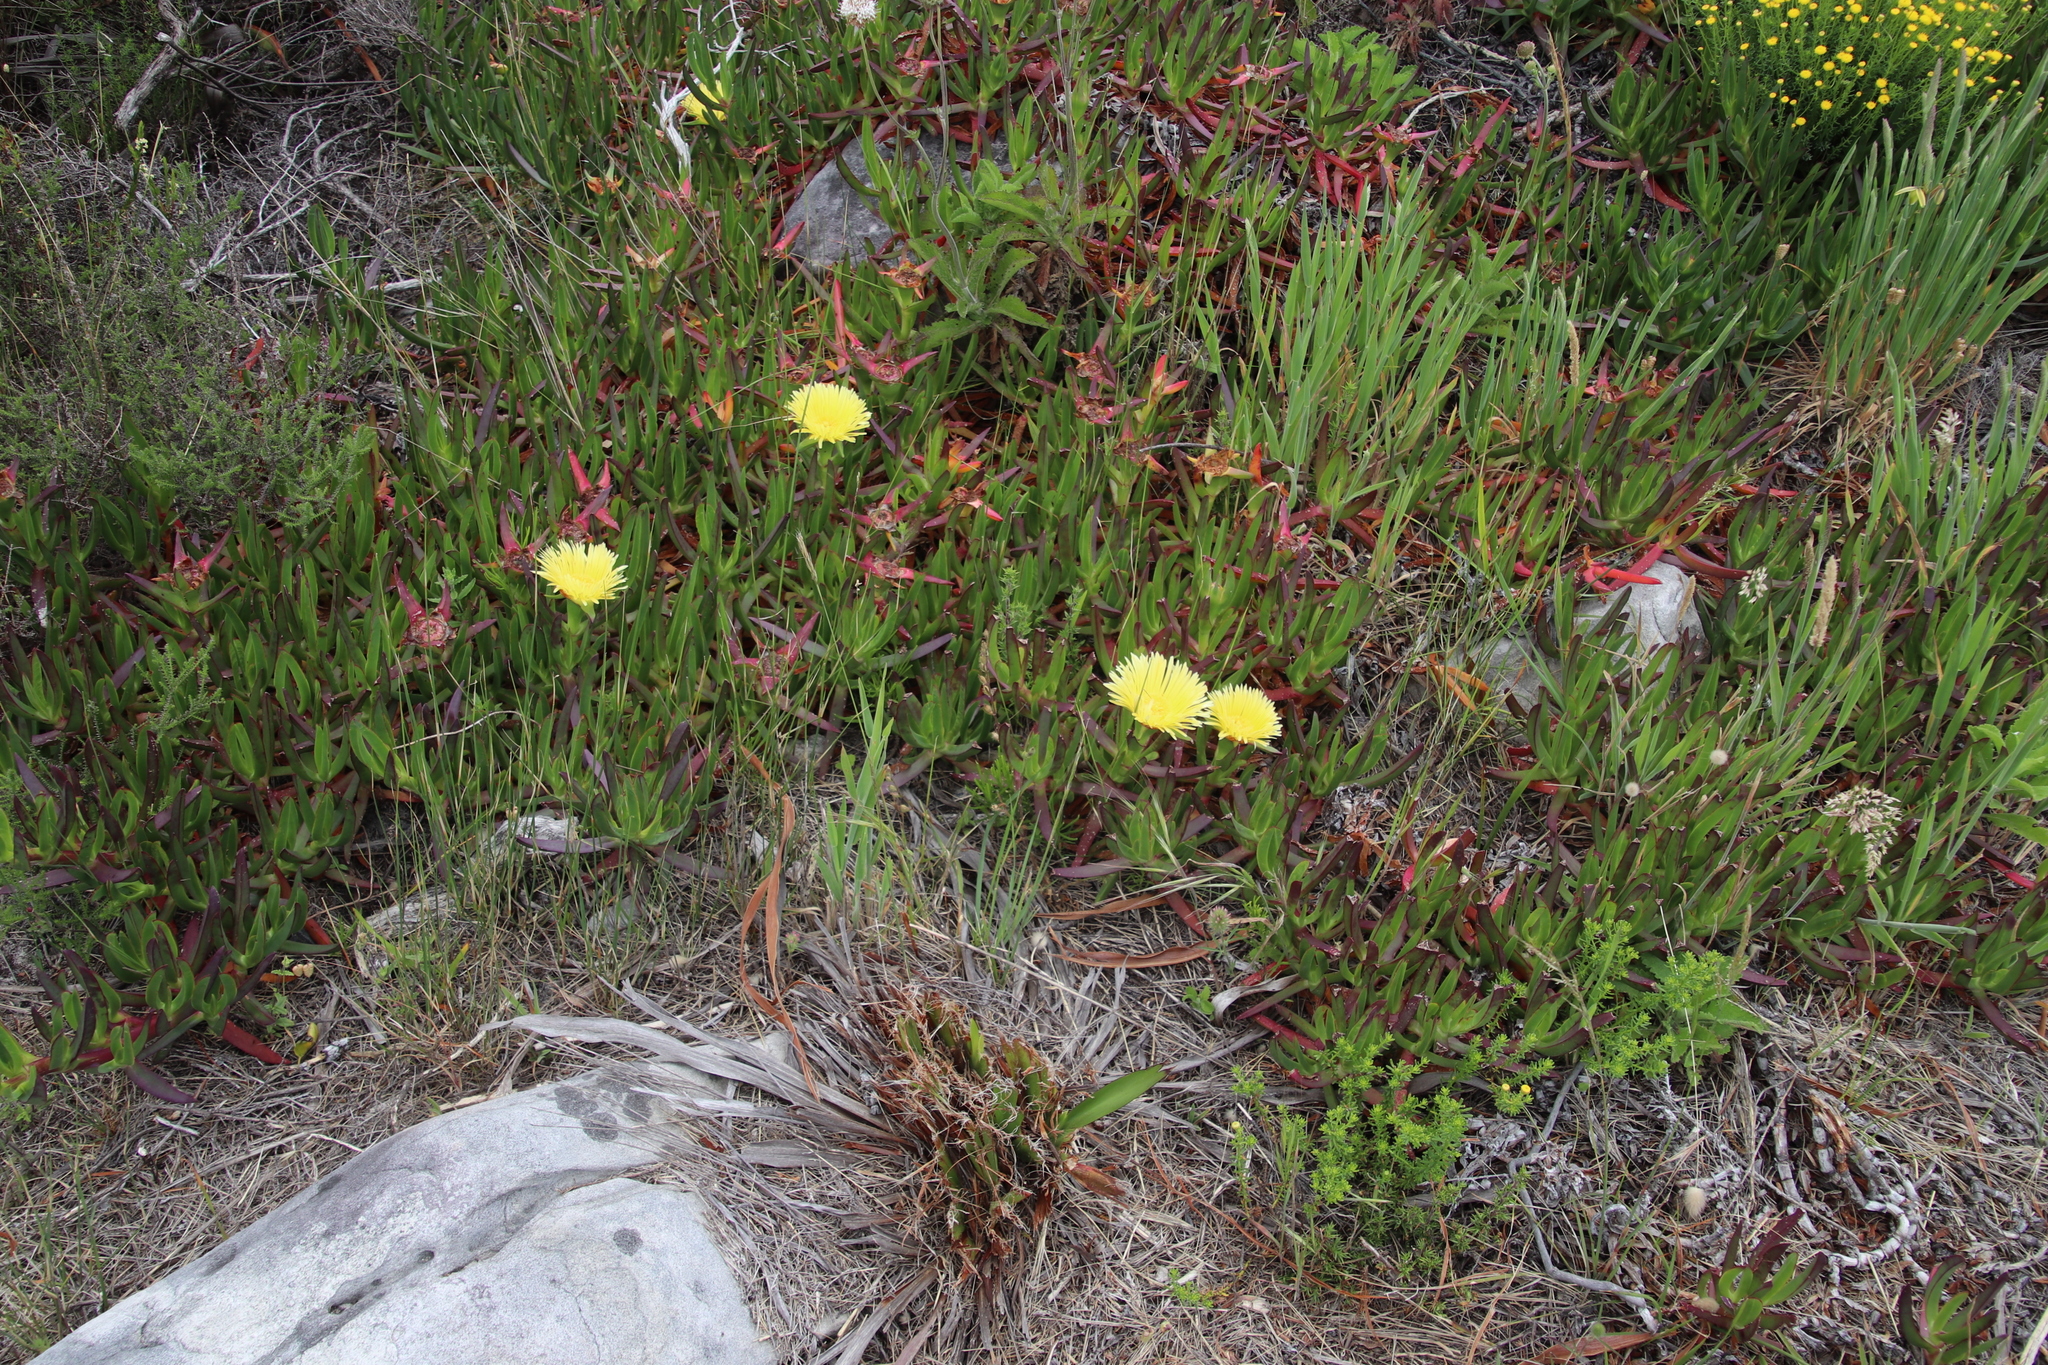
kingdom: Plantae
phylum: Tracheophyta
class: Magnoliopsida
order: Caryophyllales
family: Aizoaceae
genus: Carpobrotus
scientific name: Carpobrotus edulis
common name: Hottentot-fig
